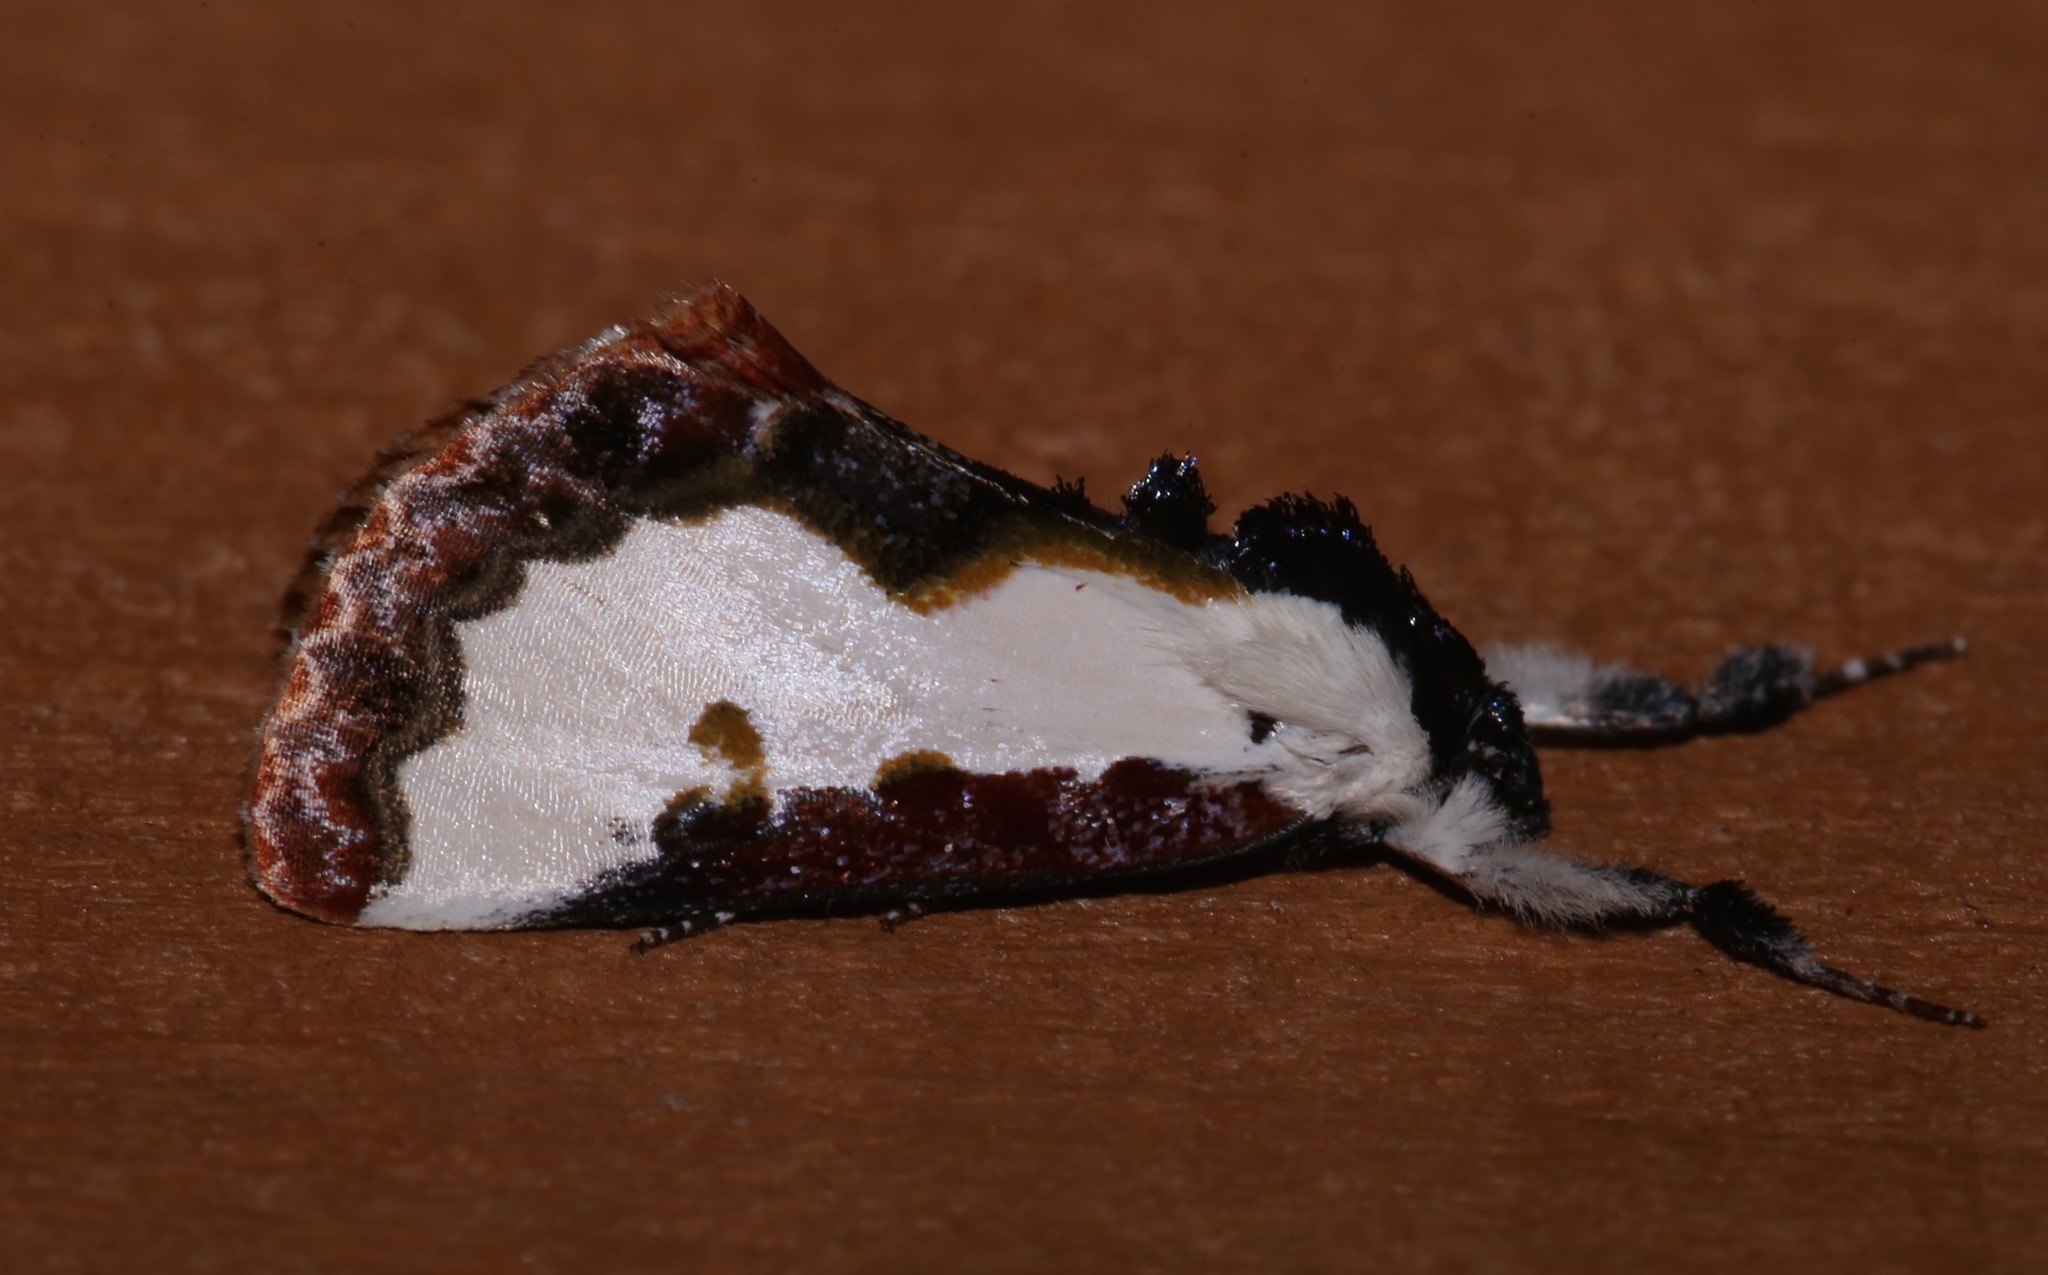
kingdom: Animalia
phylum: Arthropoda
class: Insecta
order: Lepidoptera
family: Noctuidae
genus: Eudryas
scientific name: Eudryas unio
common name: Pearly wood-nymph
